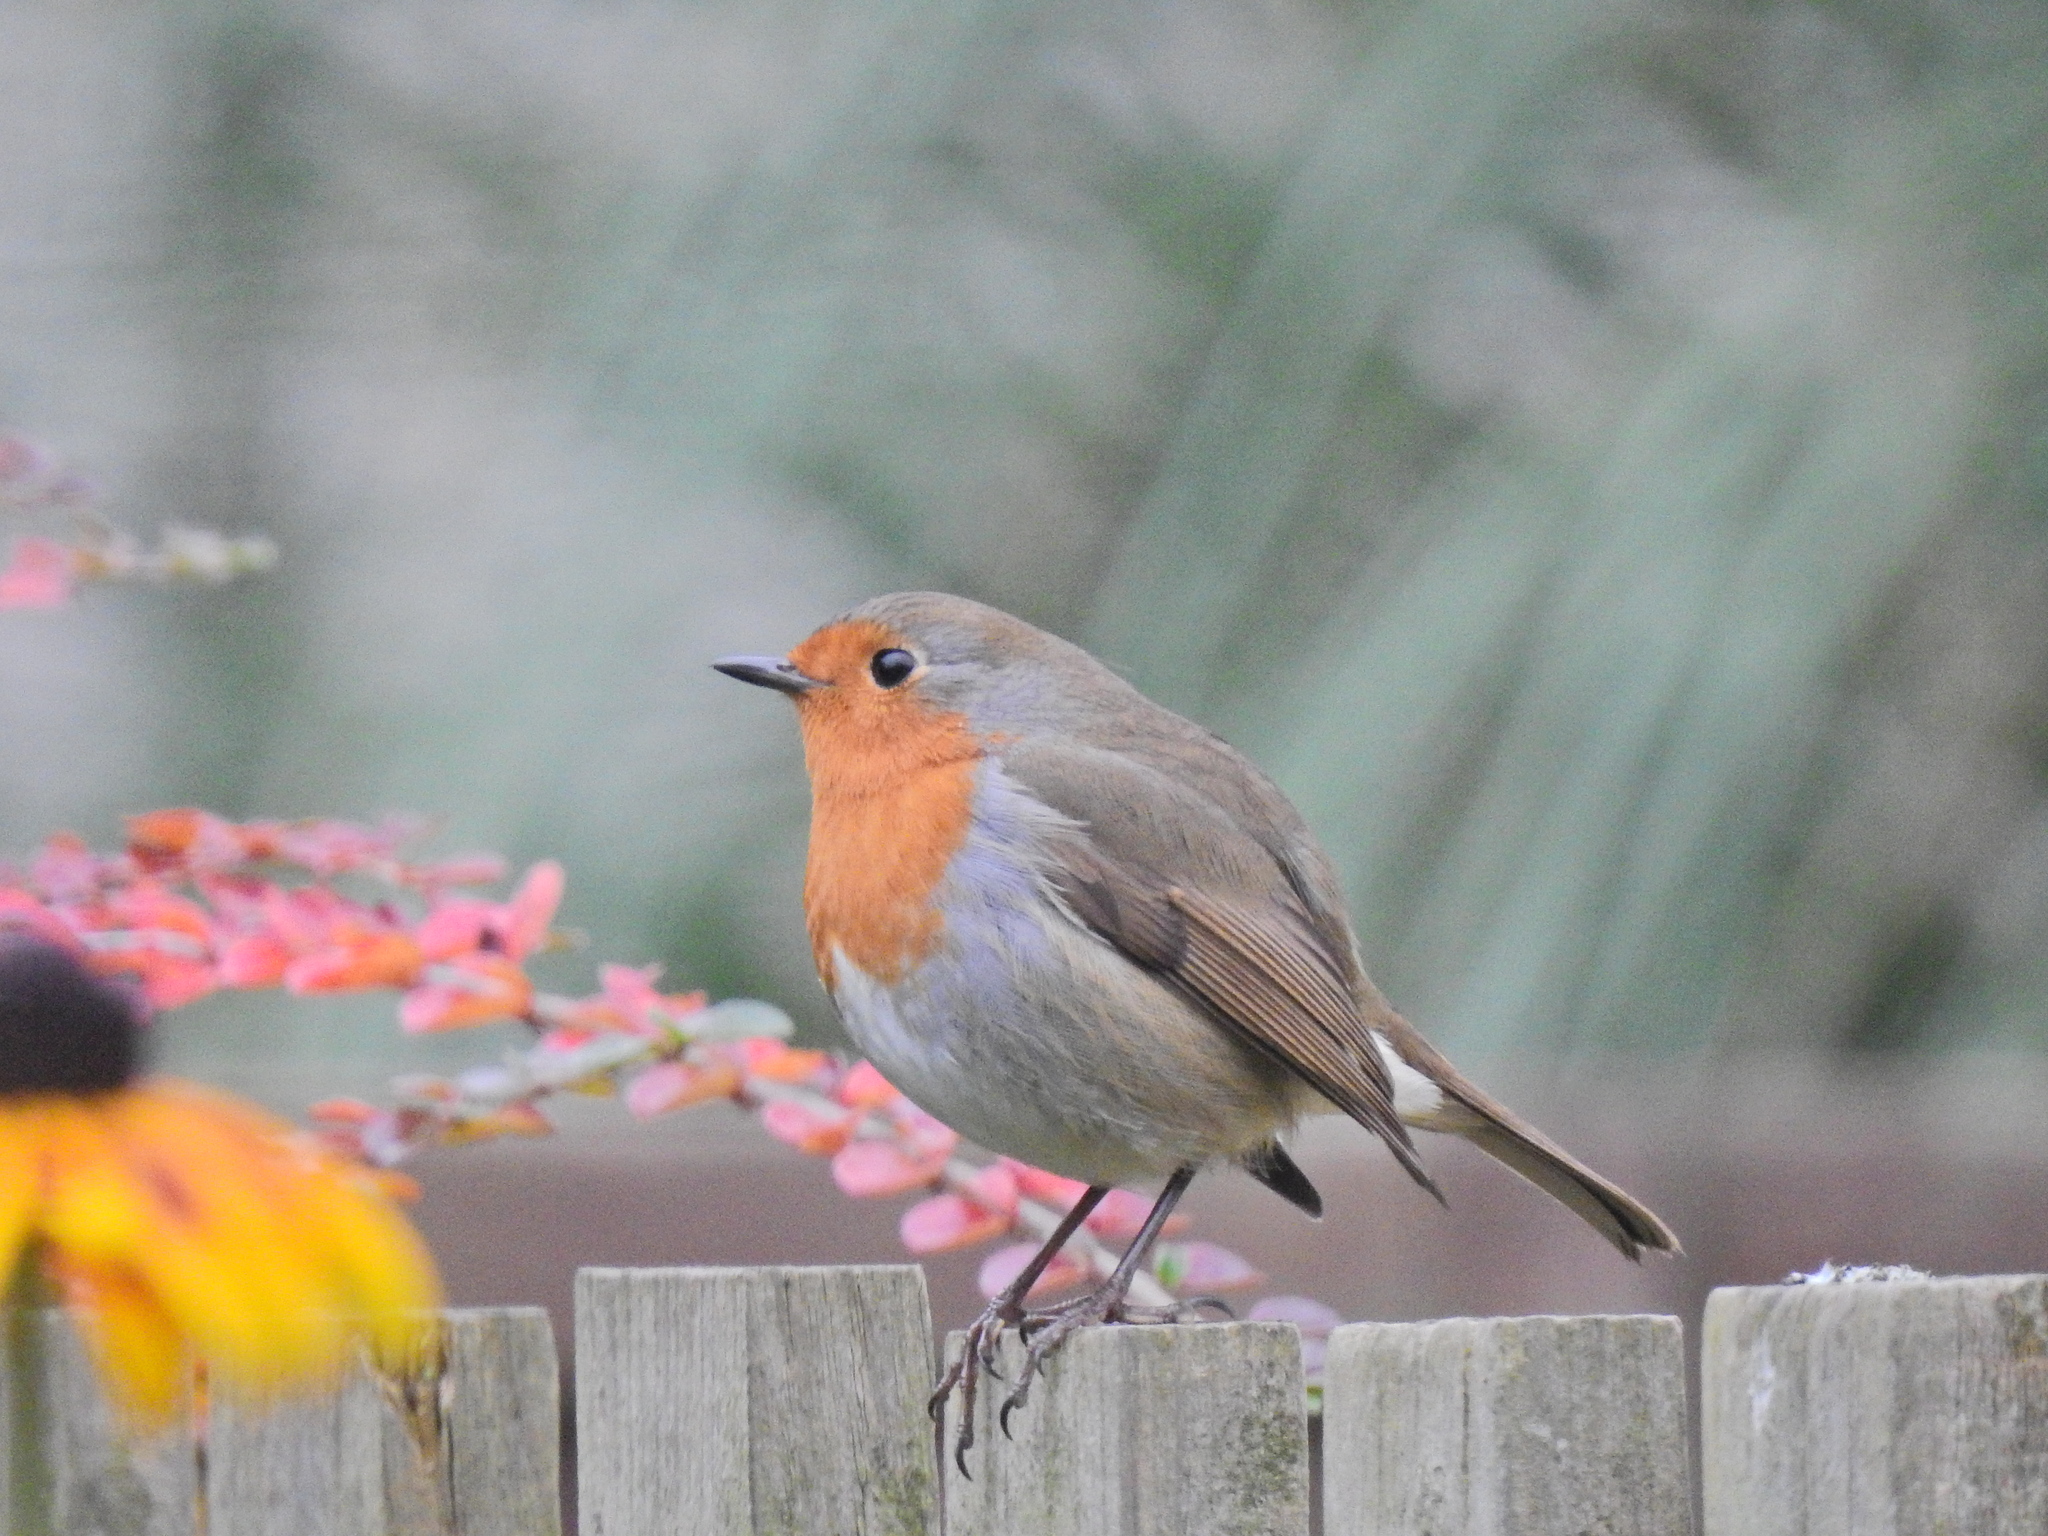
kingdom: Animalia
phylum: Chordata
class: Aves
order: Passeriformes
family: Muscicapidae
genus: Erithacus
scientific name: Erithacus rubecula
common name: European robin
